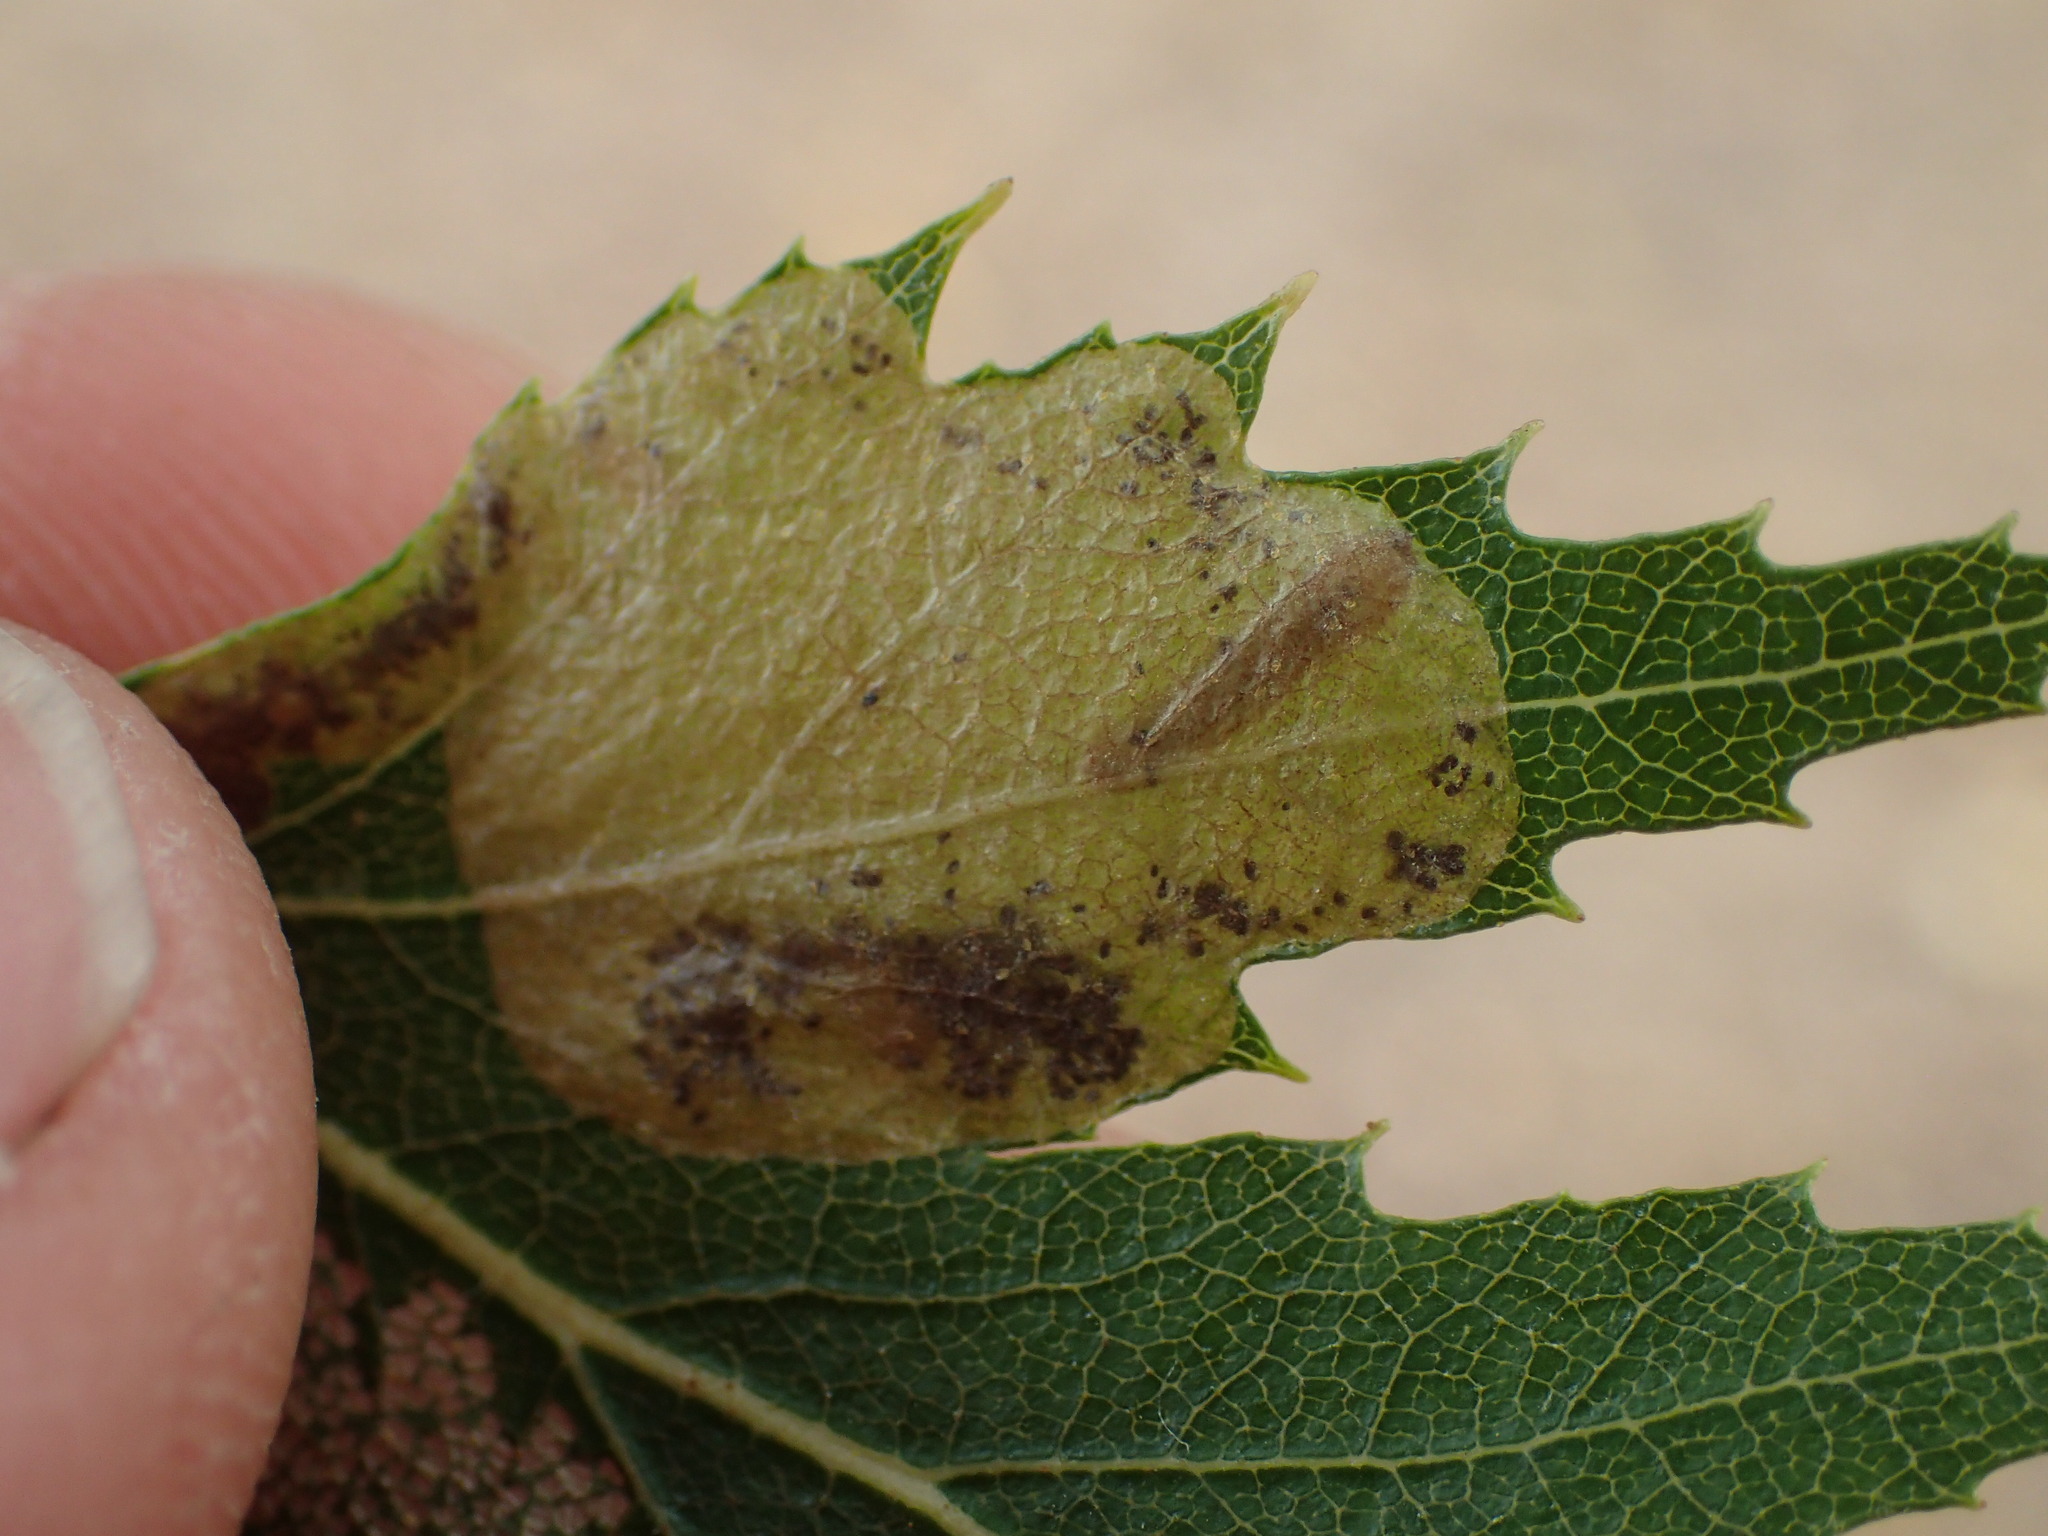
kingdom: Animalia
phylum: Arthropoda
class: Insecta
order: Hymenoptera
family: Tenthredinidae
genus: Profenusa
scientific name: Profenusa thomsoni
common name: Amber-marked birch leafminer
